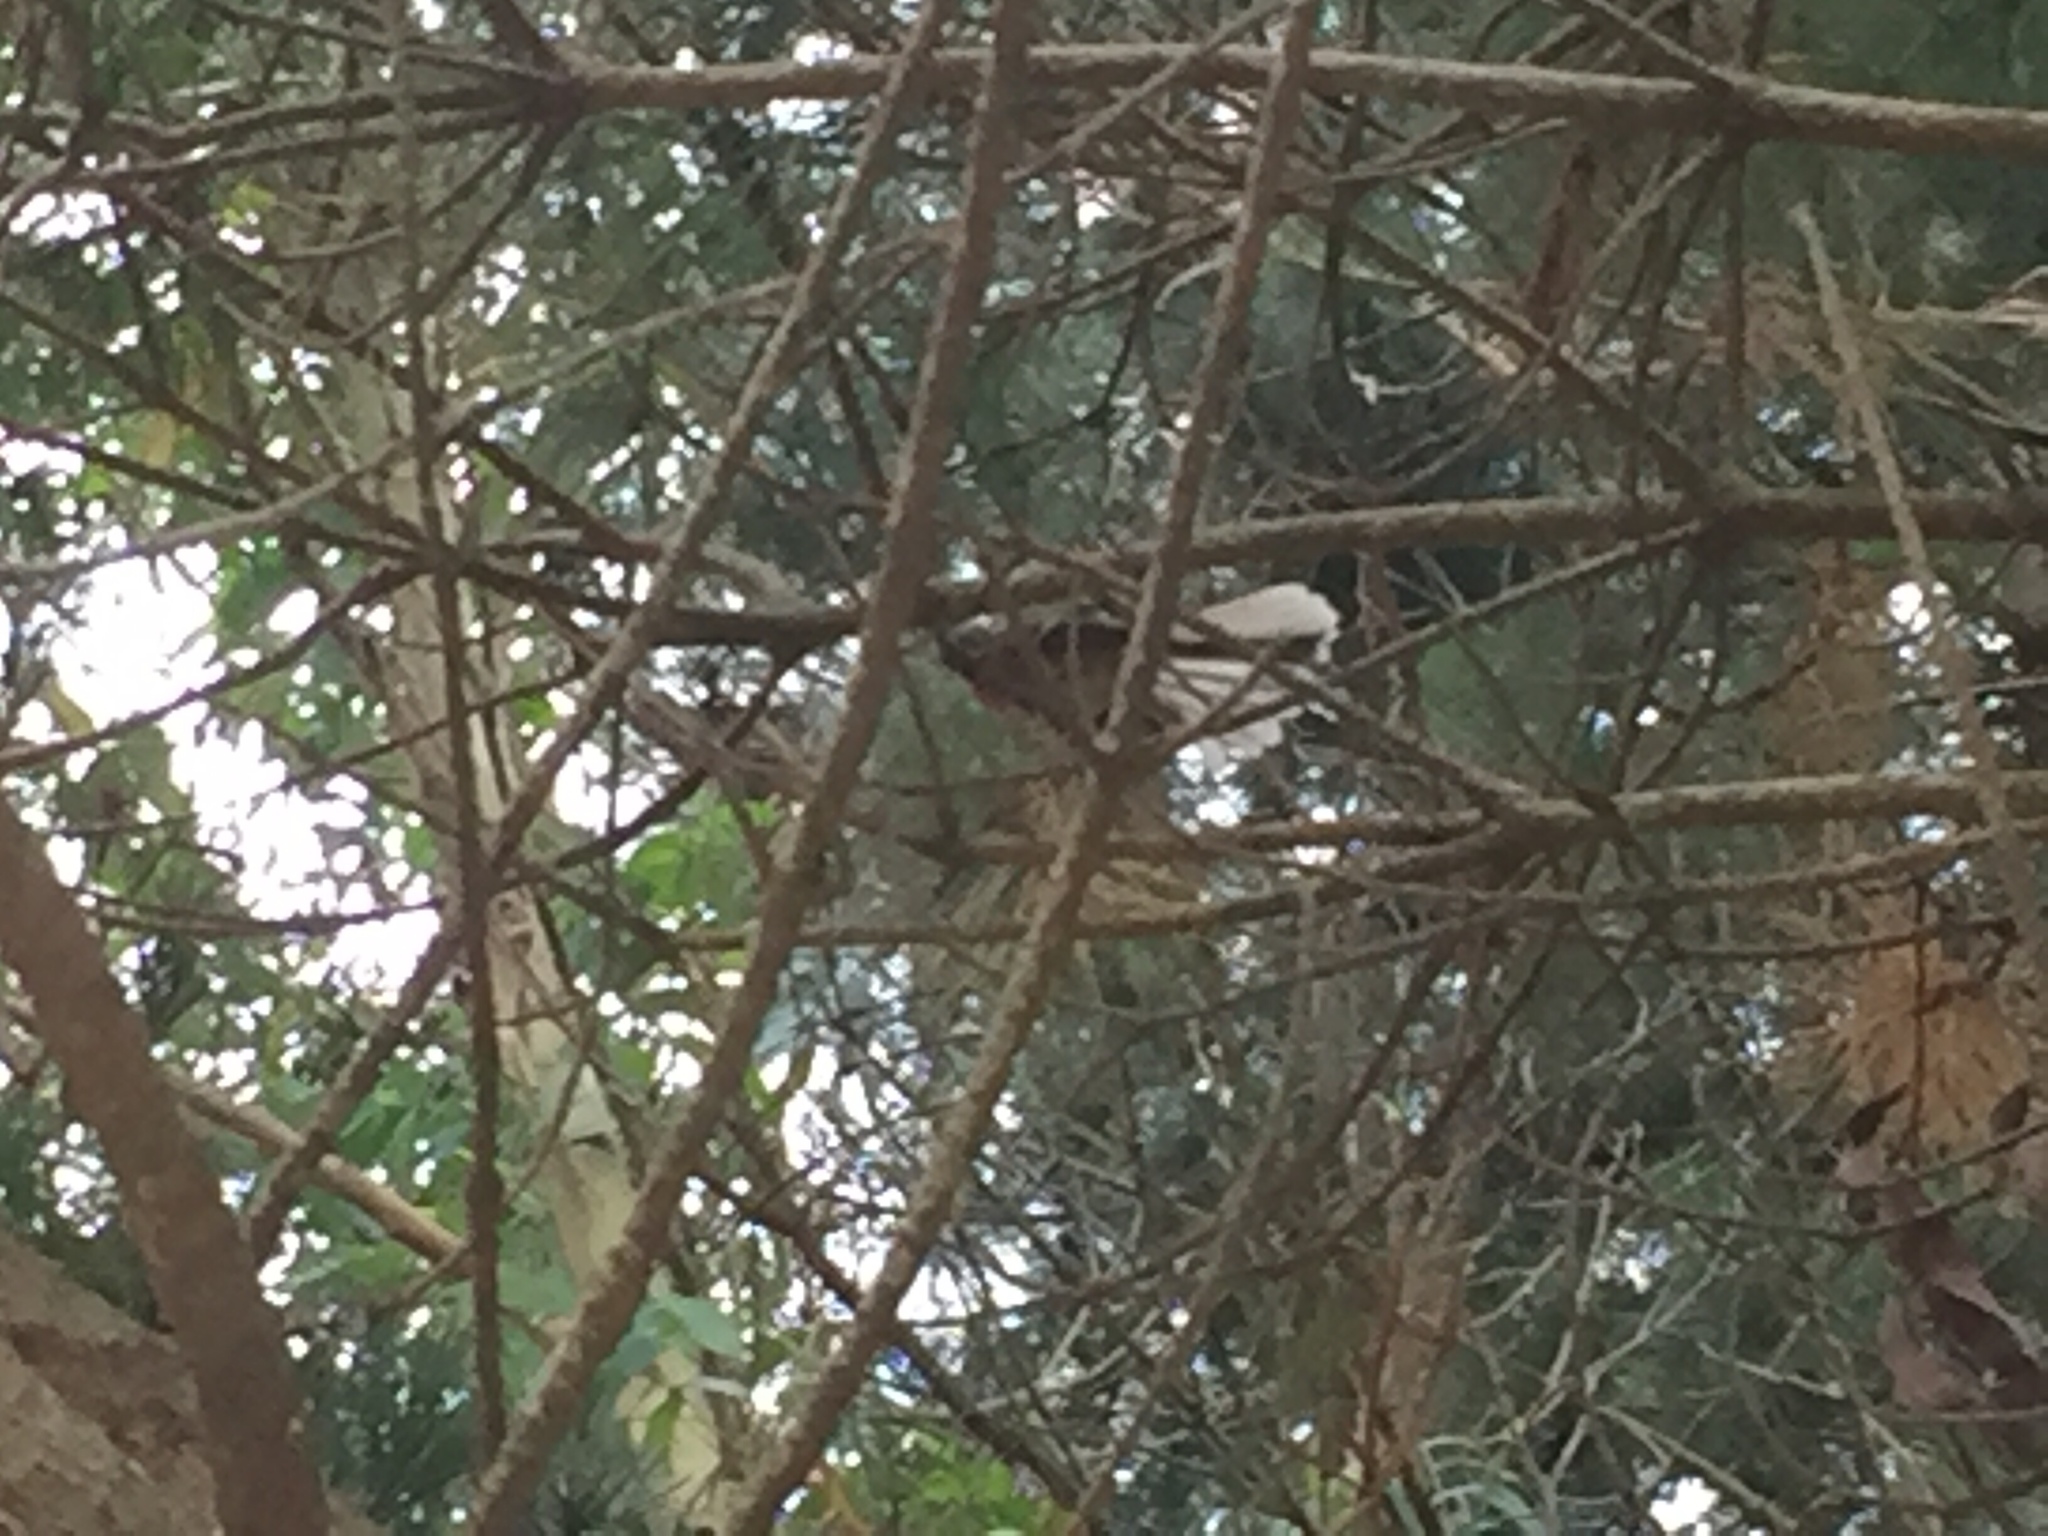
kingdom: Animalia
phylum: Chordata
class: Aves
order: Passeriformes
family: Rhipiduridae
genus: Rhipidura
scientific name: Rhipidura fuliginosa
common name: New zealand fantail
